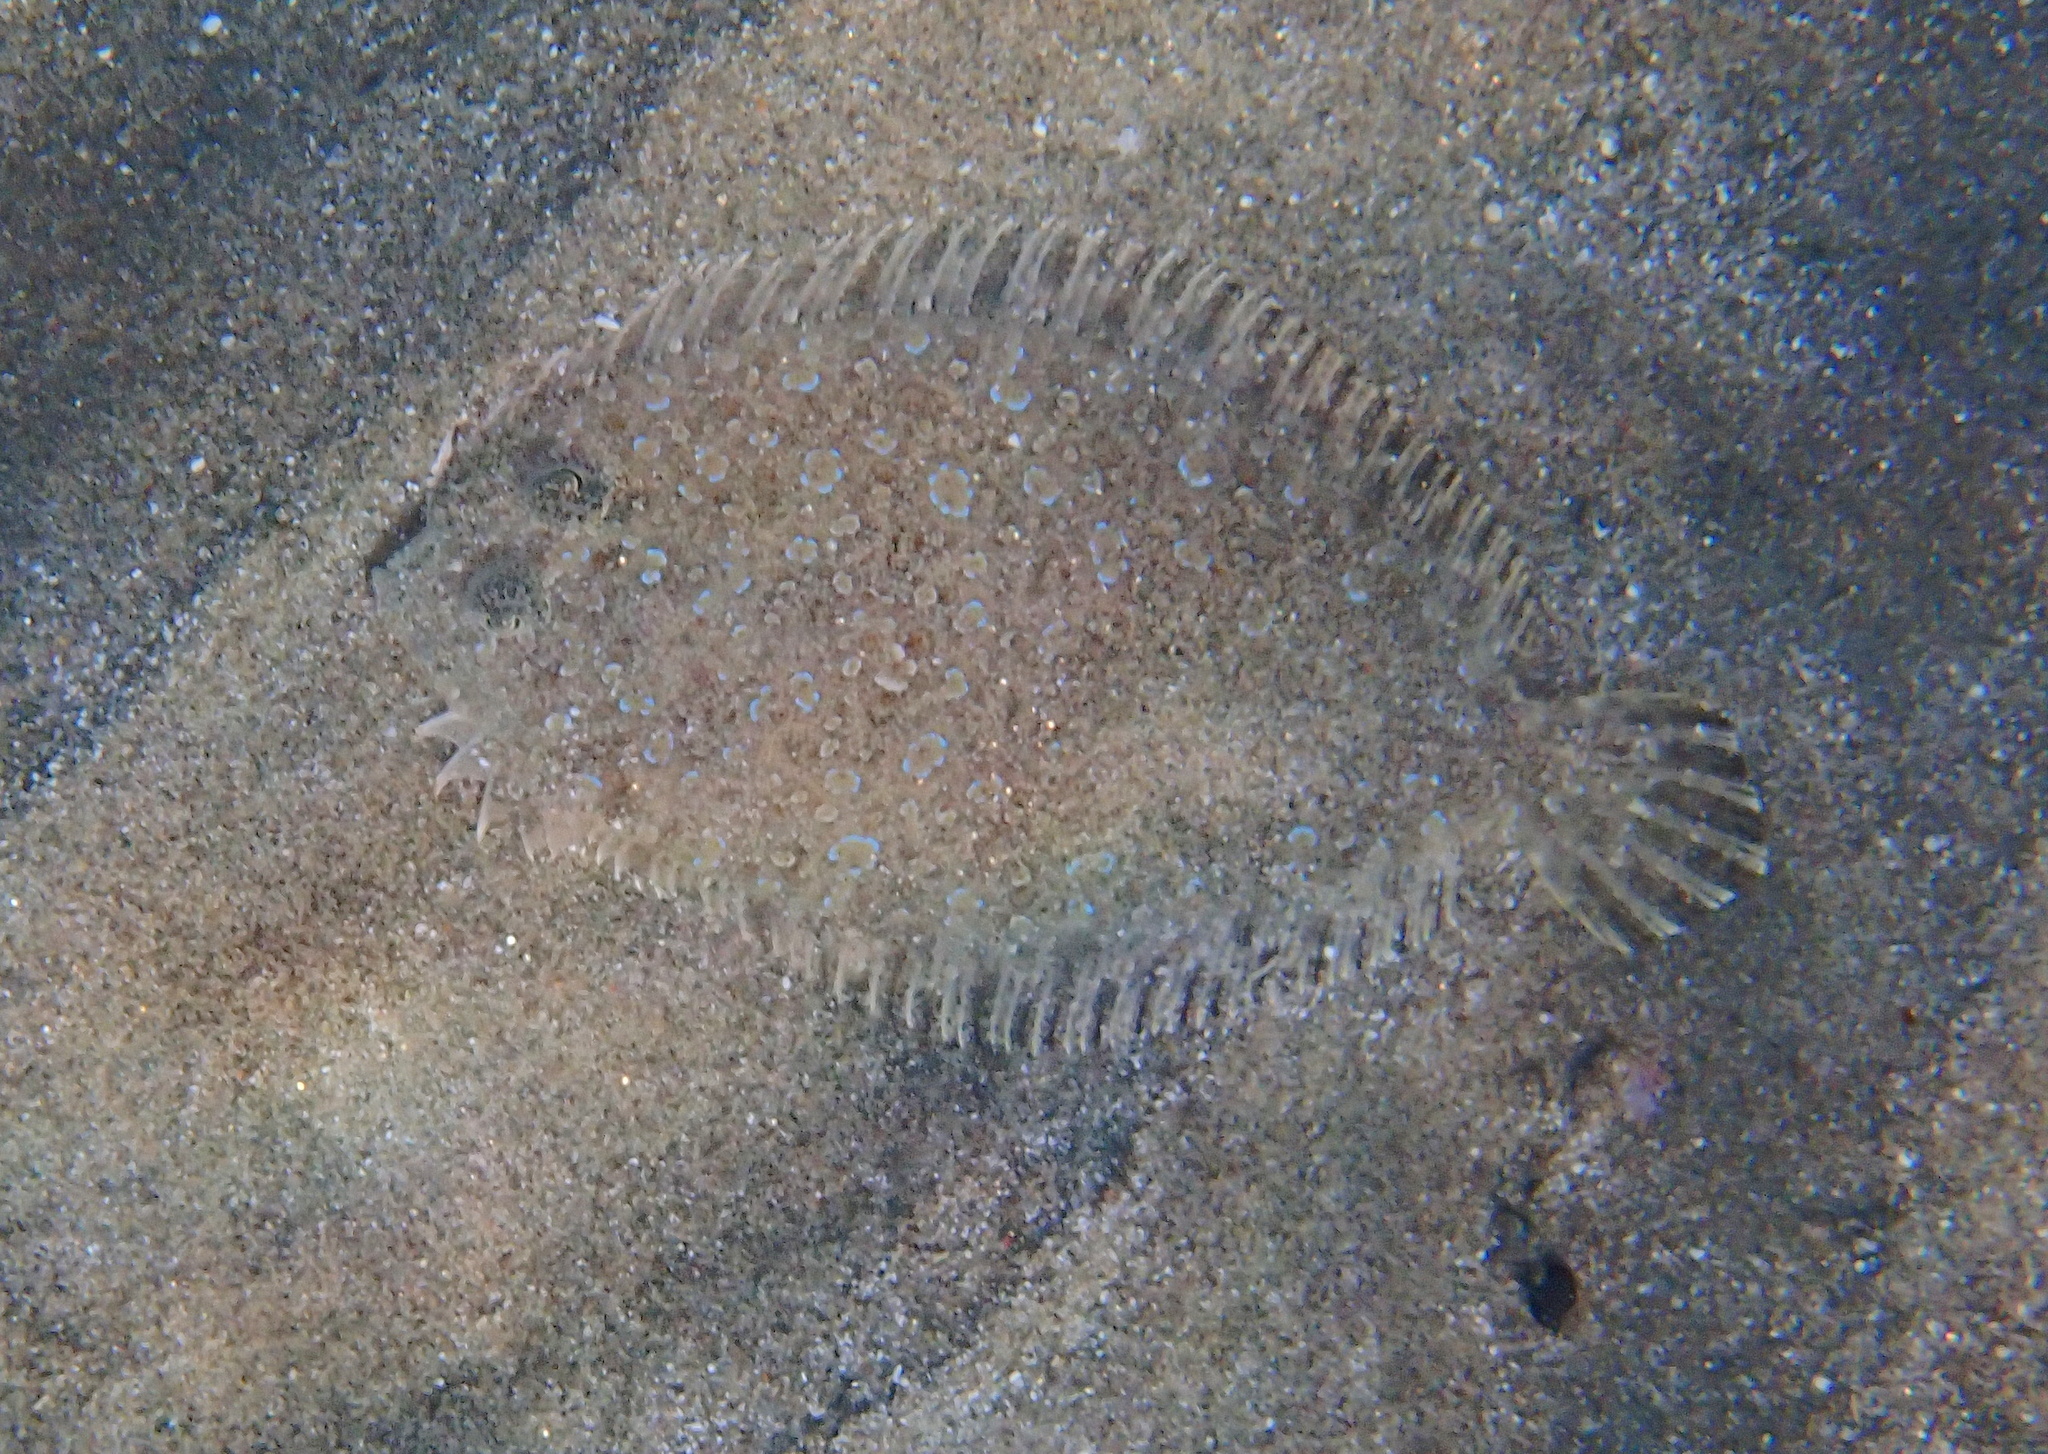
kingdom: Animalia
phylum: Chordata
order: Pleuronectiformes
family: Bothidae
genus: Bothus
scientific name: Bothus pantherinus
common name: Leopard flounder
